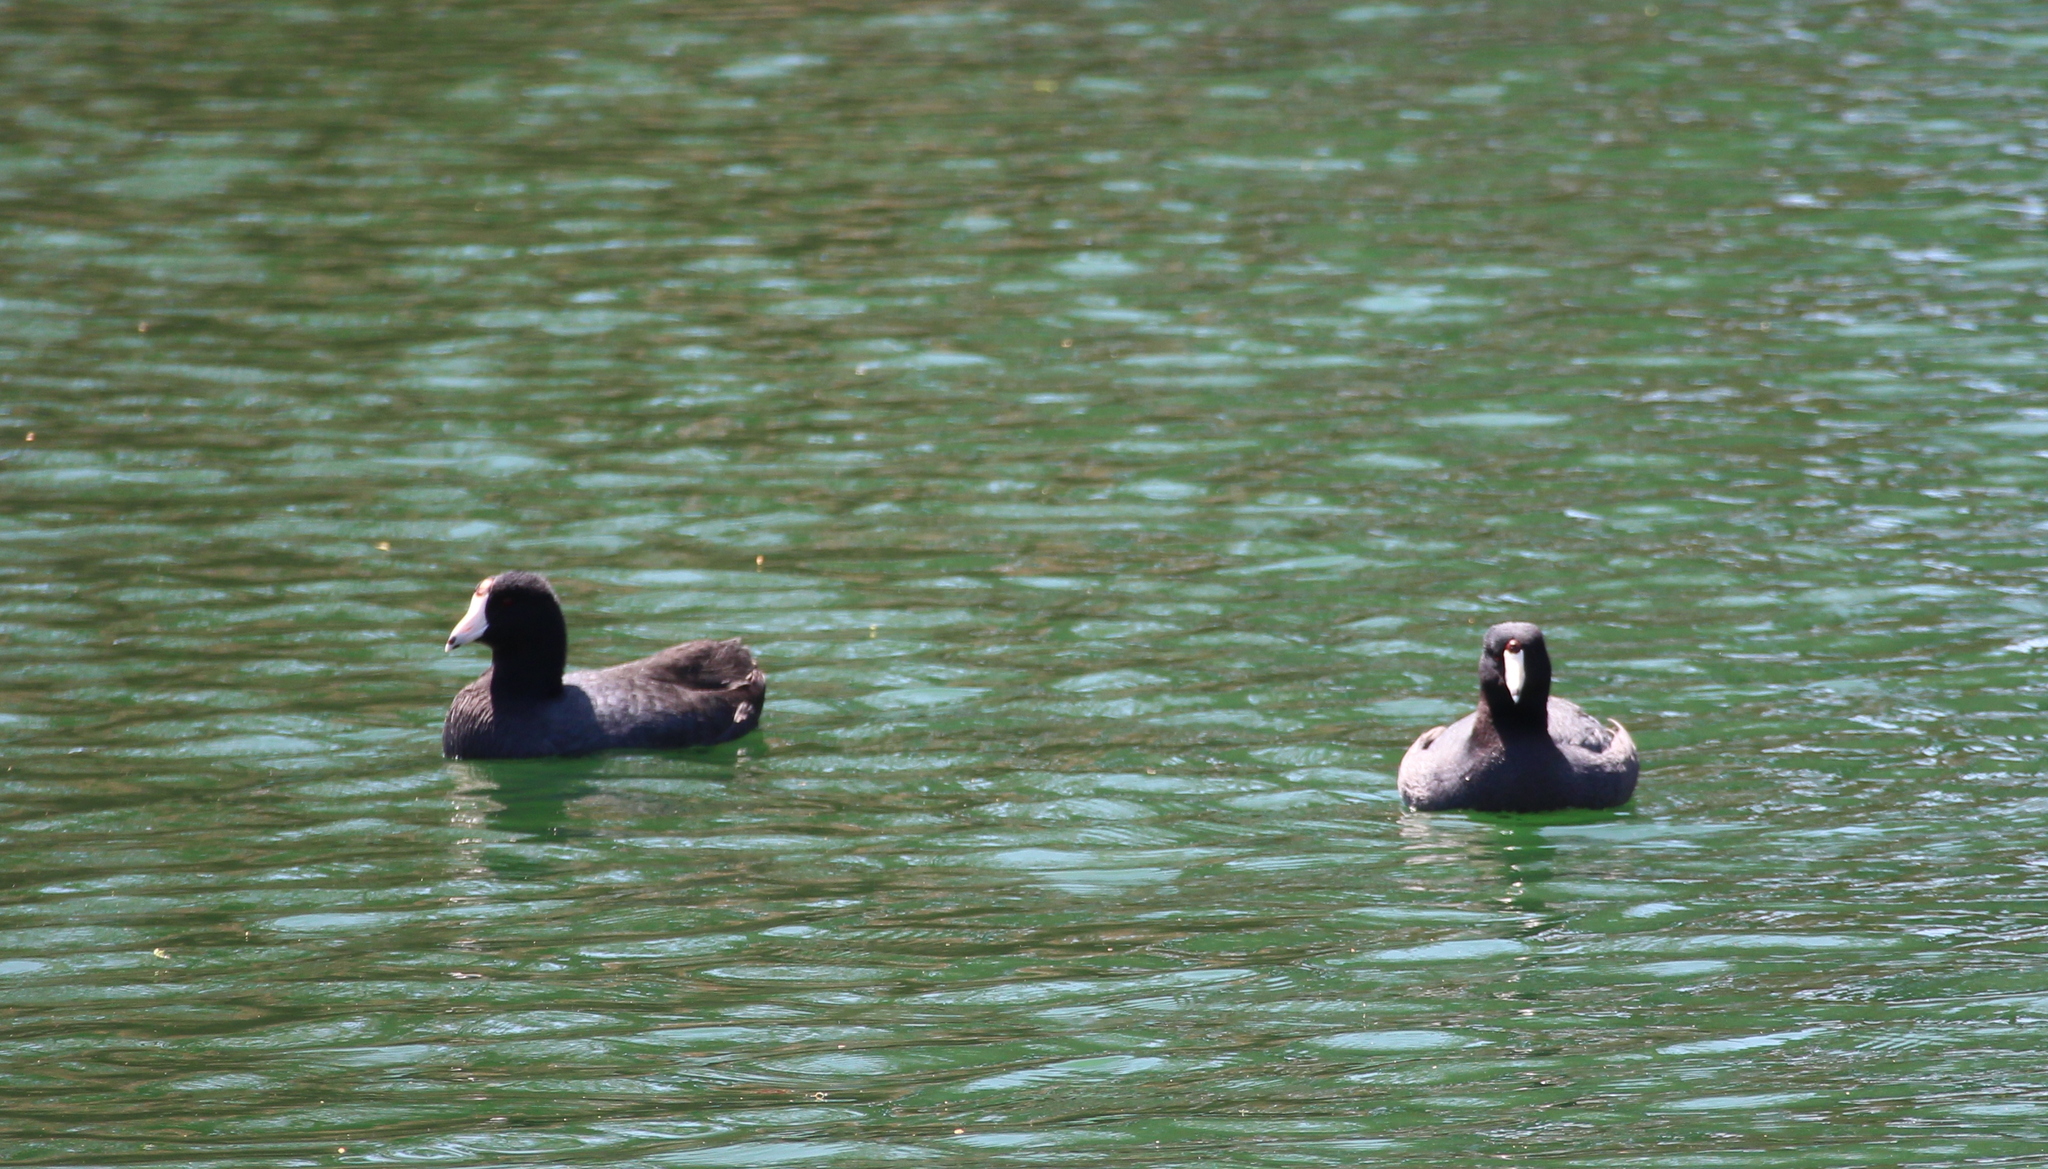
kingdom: Animalia
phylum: Chordata
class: Aves
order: Gruiformes
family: Rallidae
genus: Fulica
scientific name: Fulica americana
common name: American coot
